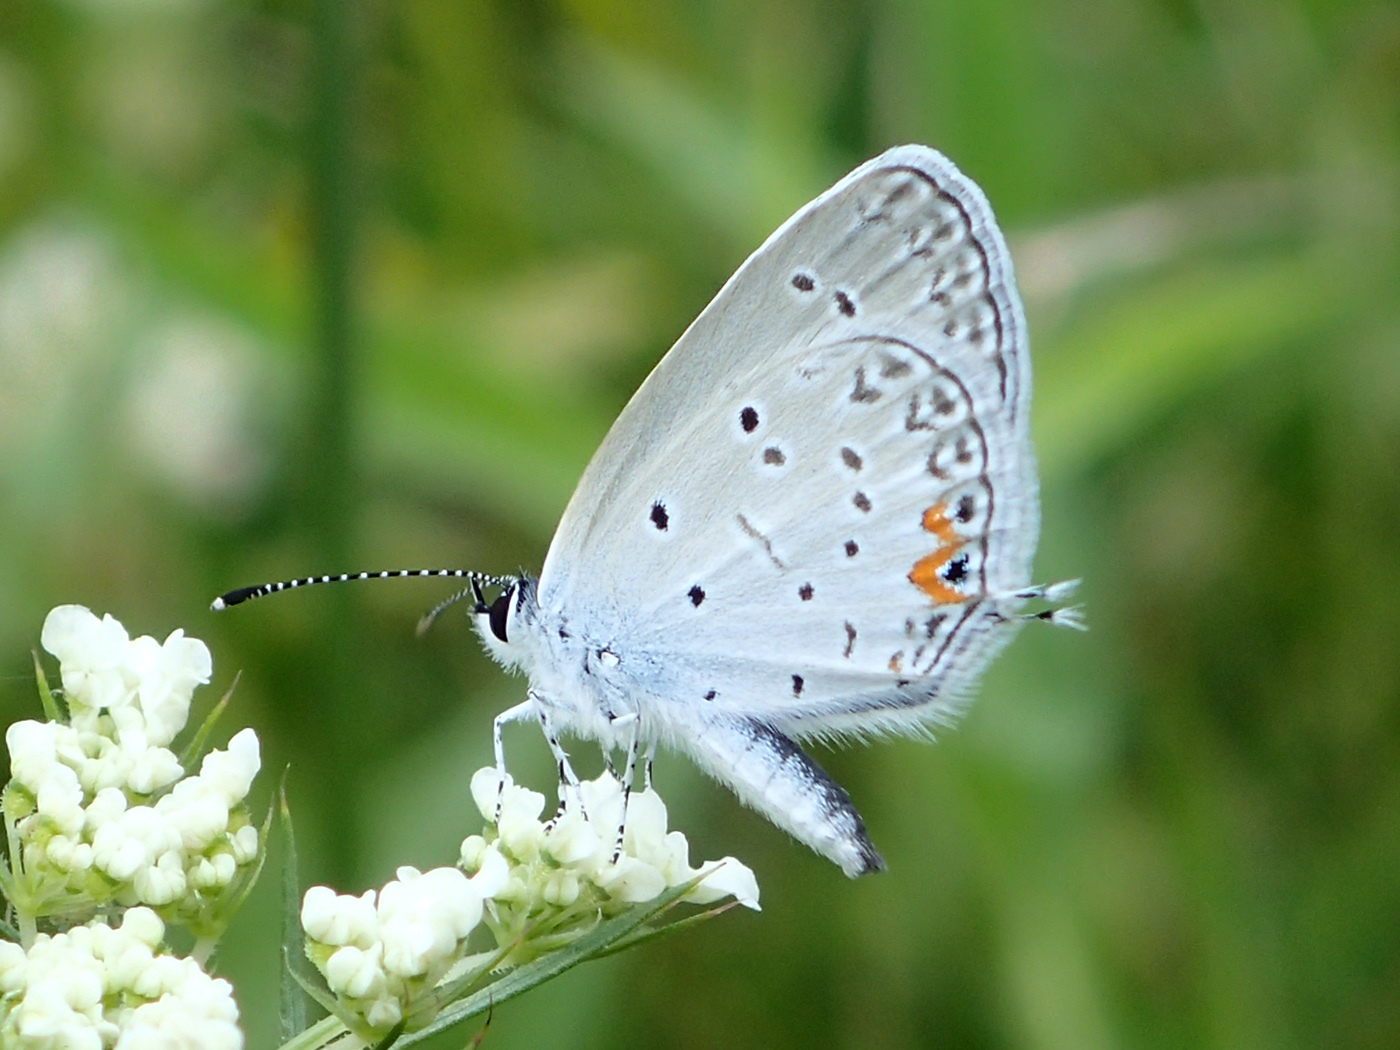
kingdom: Animalia
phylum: Arthropoda
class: Insecta
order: Lepidoptera
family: Lycaenidae
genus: Elkalyce
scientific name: Elkalyce comyntas
